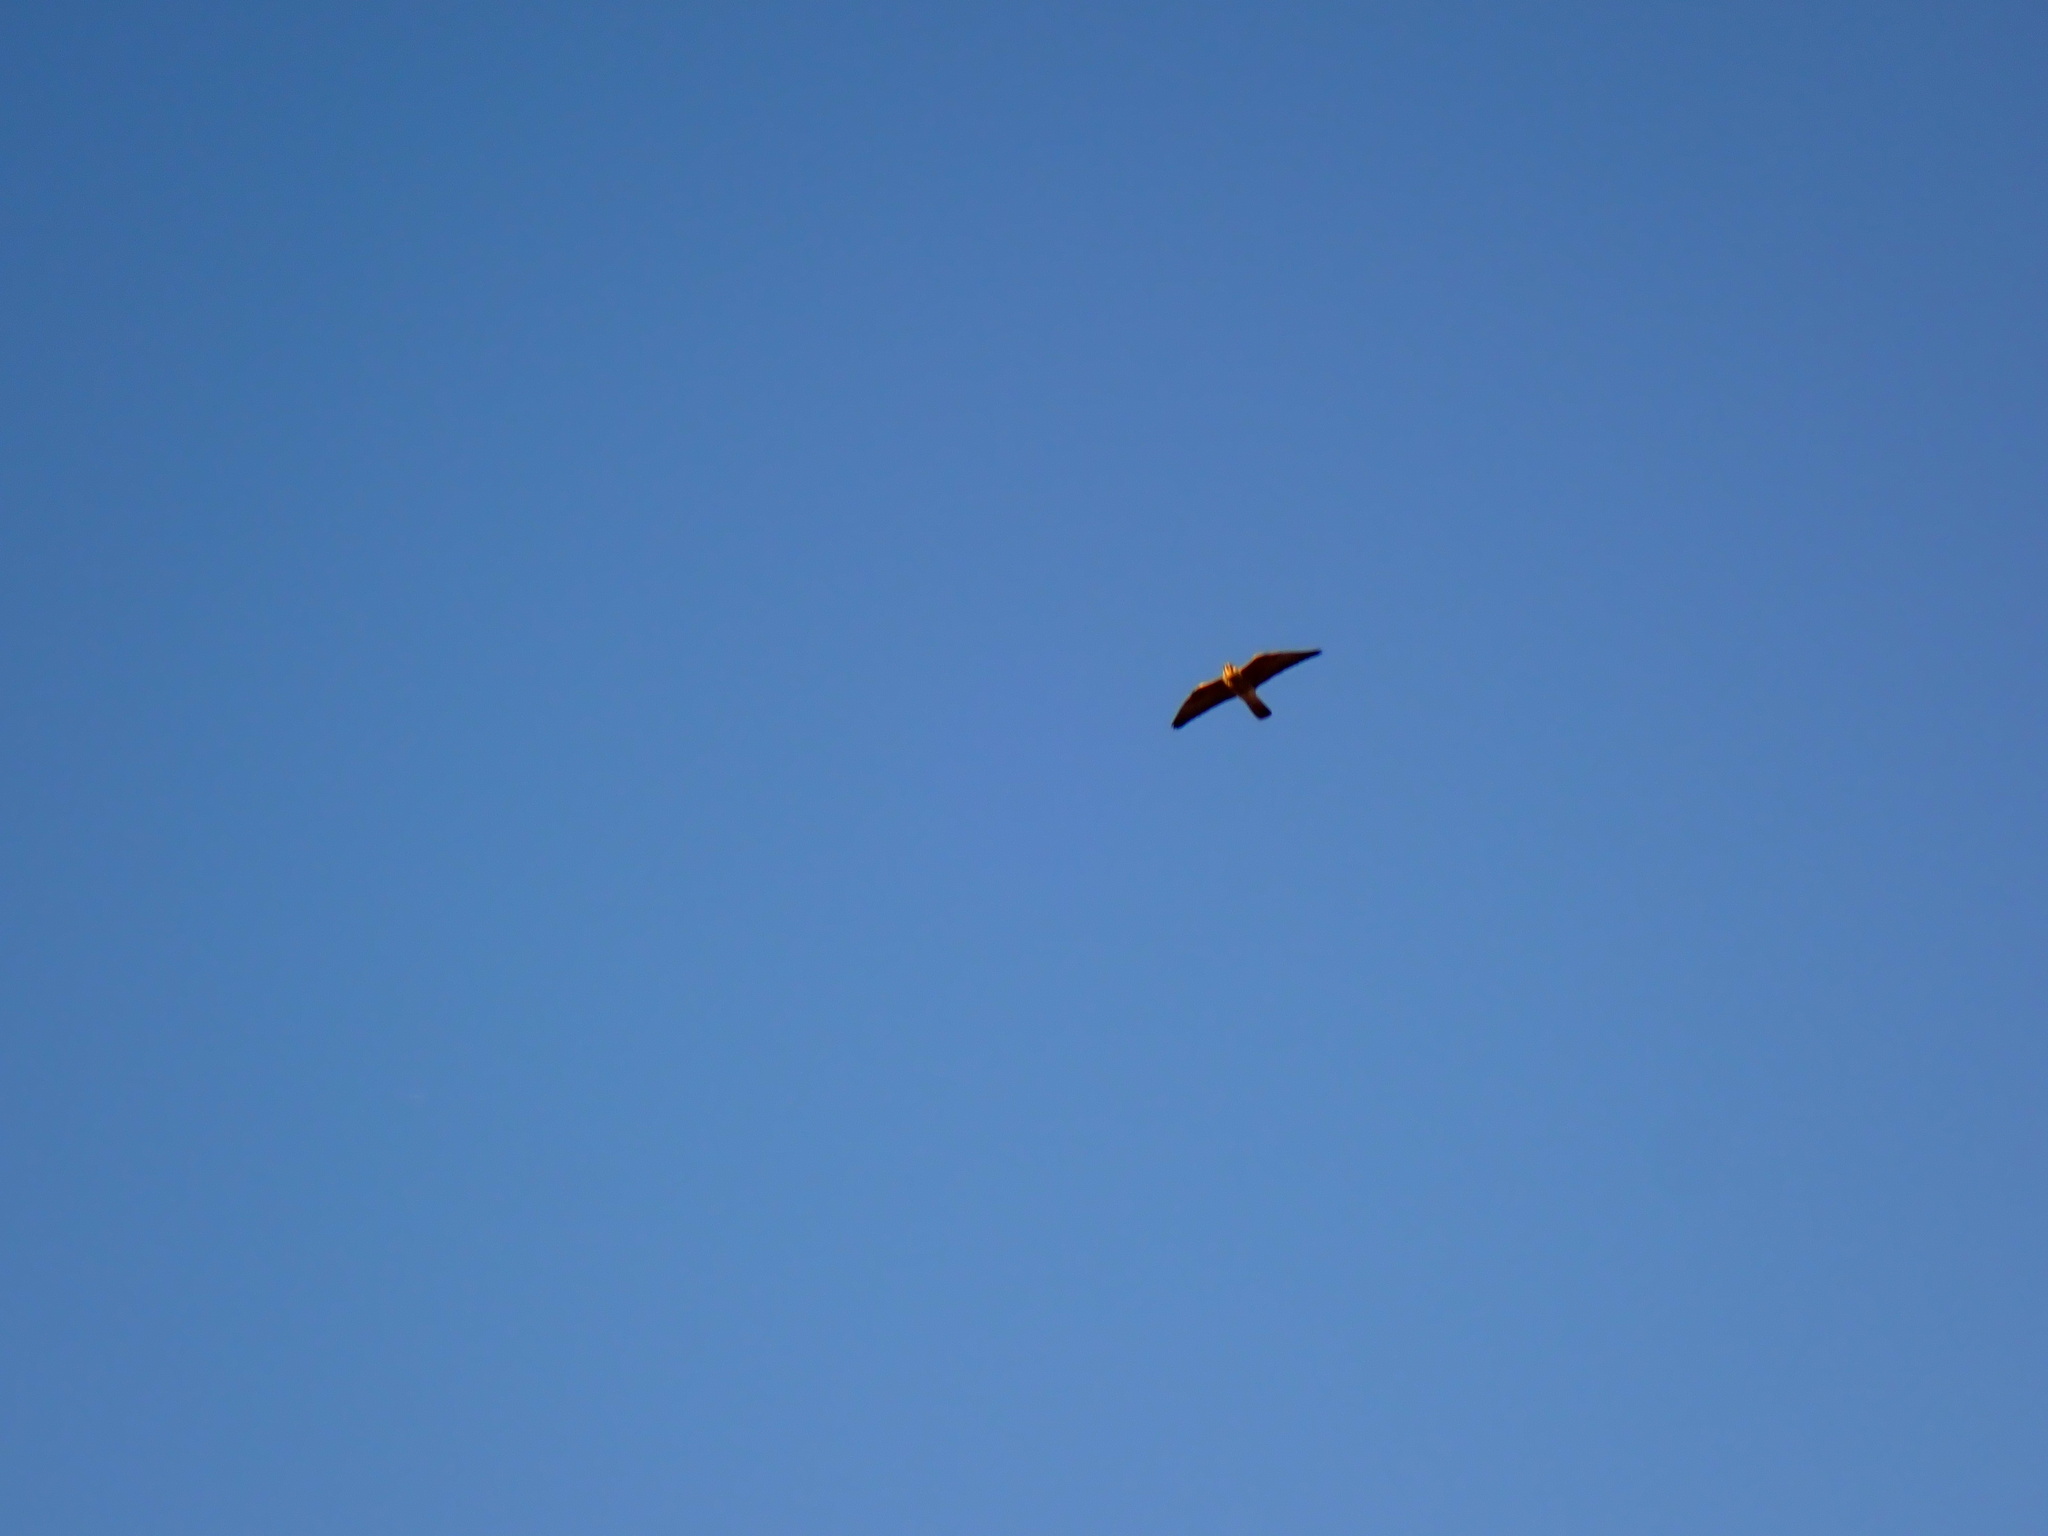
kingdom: Animalia
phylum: Chordata
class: Aves
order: Falconiformes
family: Falconidae
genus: Falco
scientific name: Falco peregrinus
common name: Peregrine falcon
